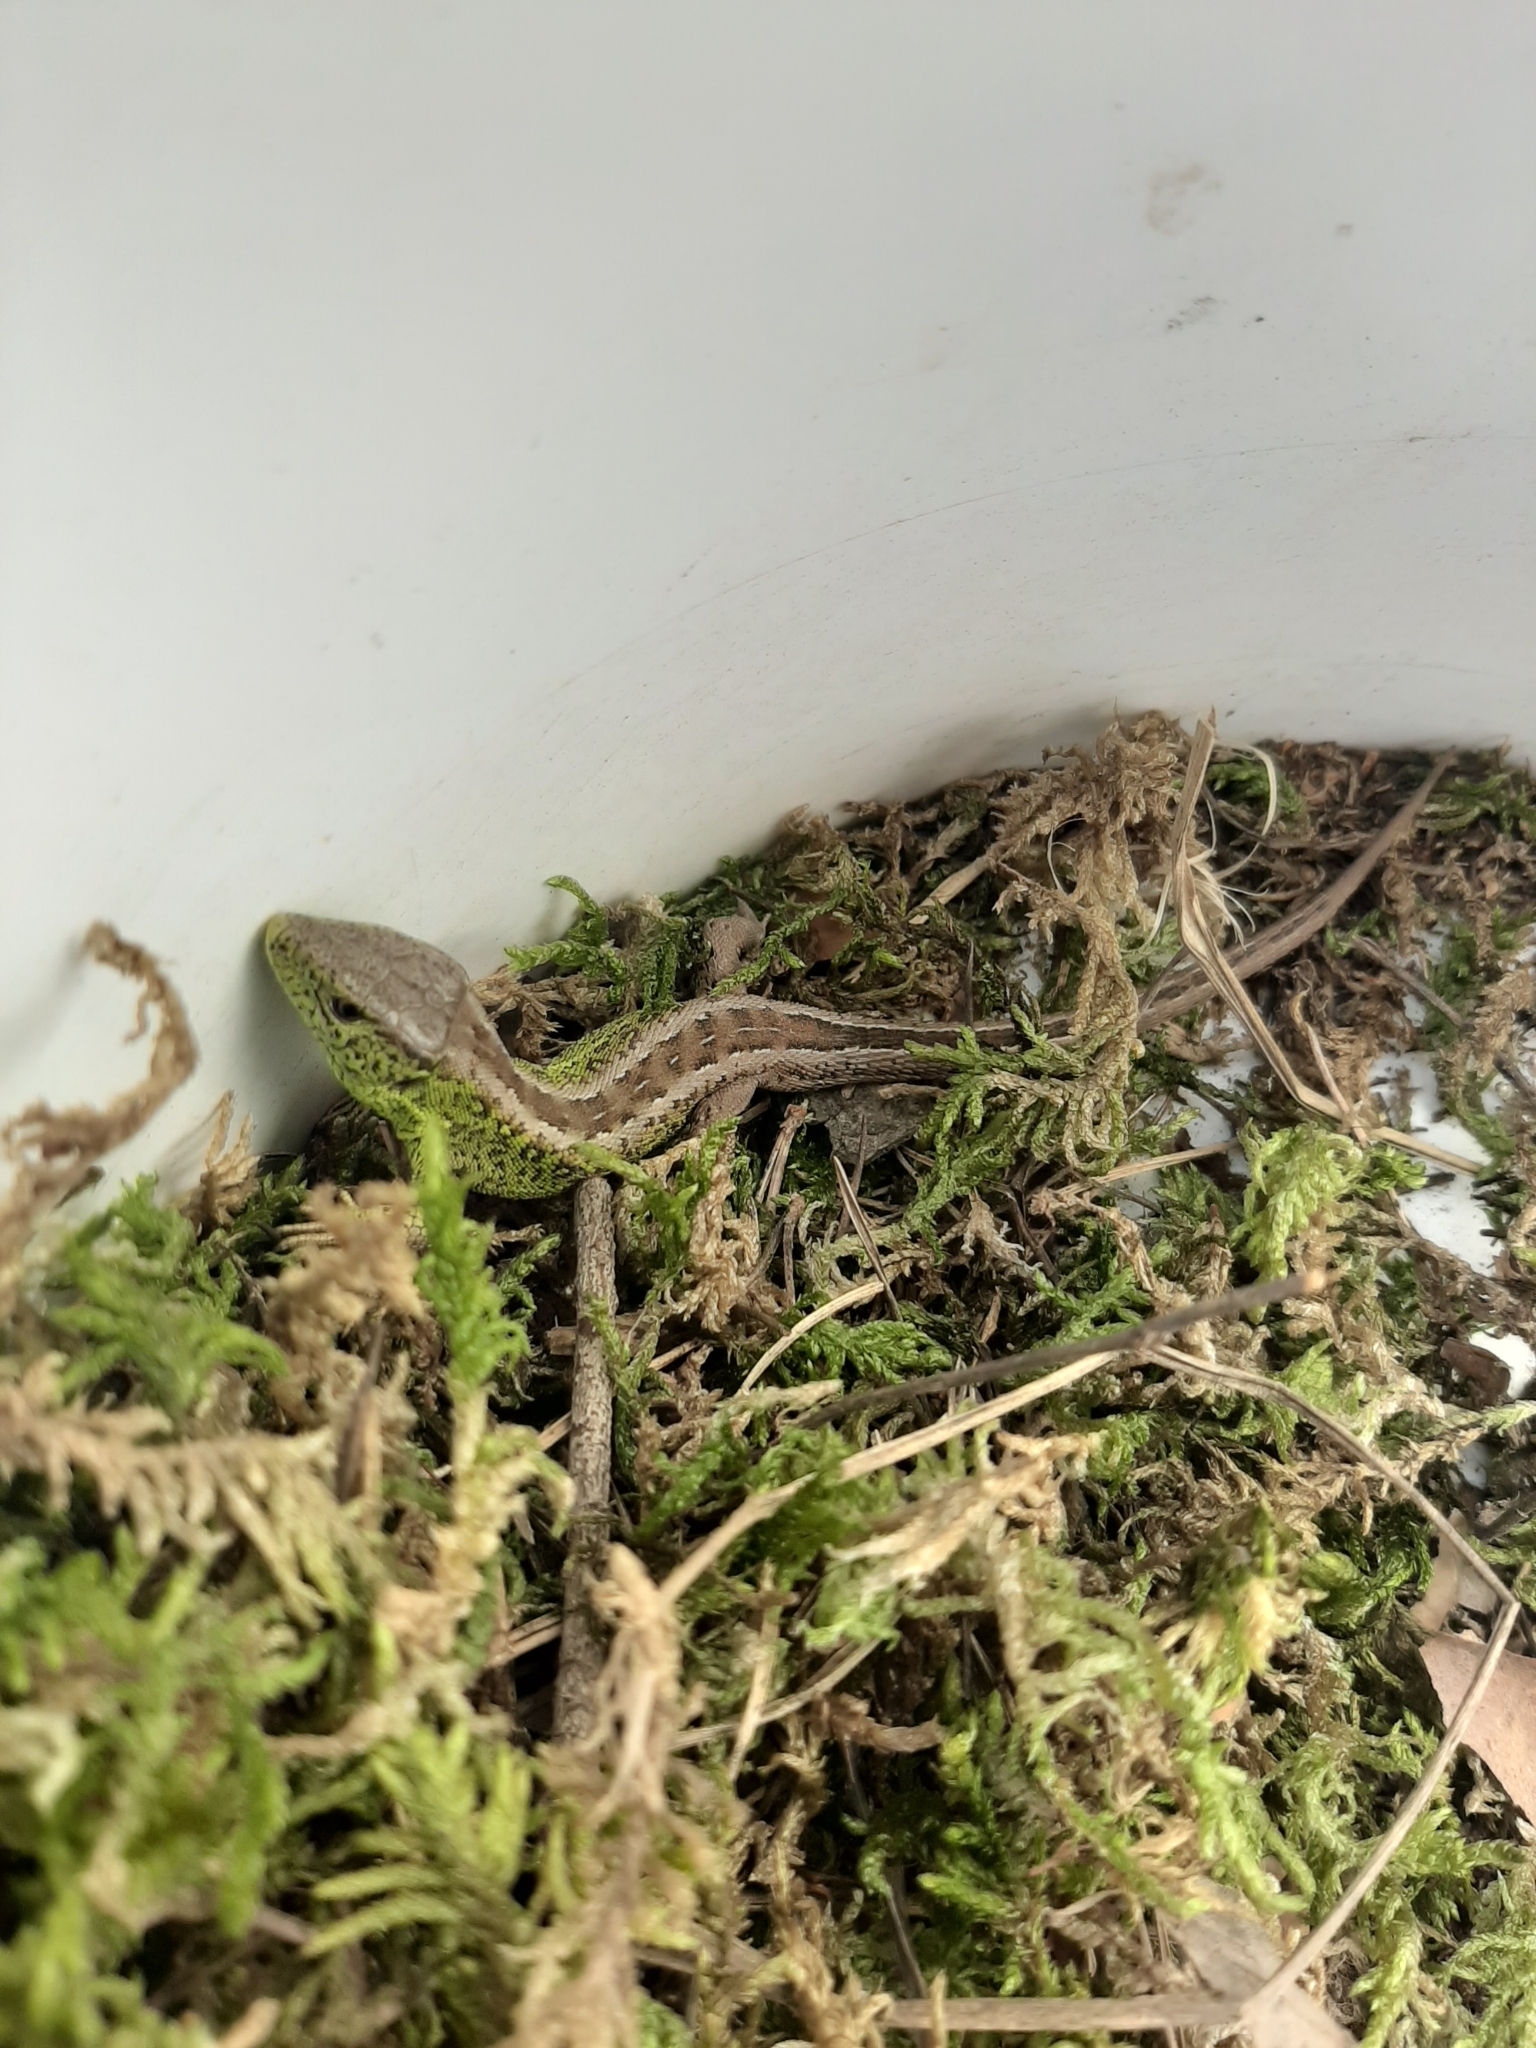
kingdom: Animalia
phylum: Chordata
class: Squamata
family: Lacertidae
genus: Lacerta
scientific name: Lacerta agilis
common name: Sand lizard
